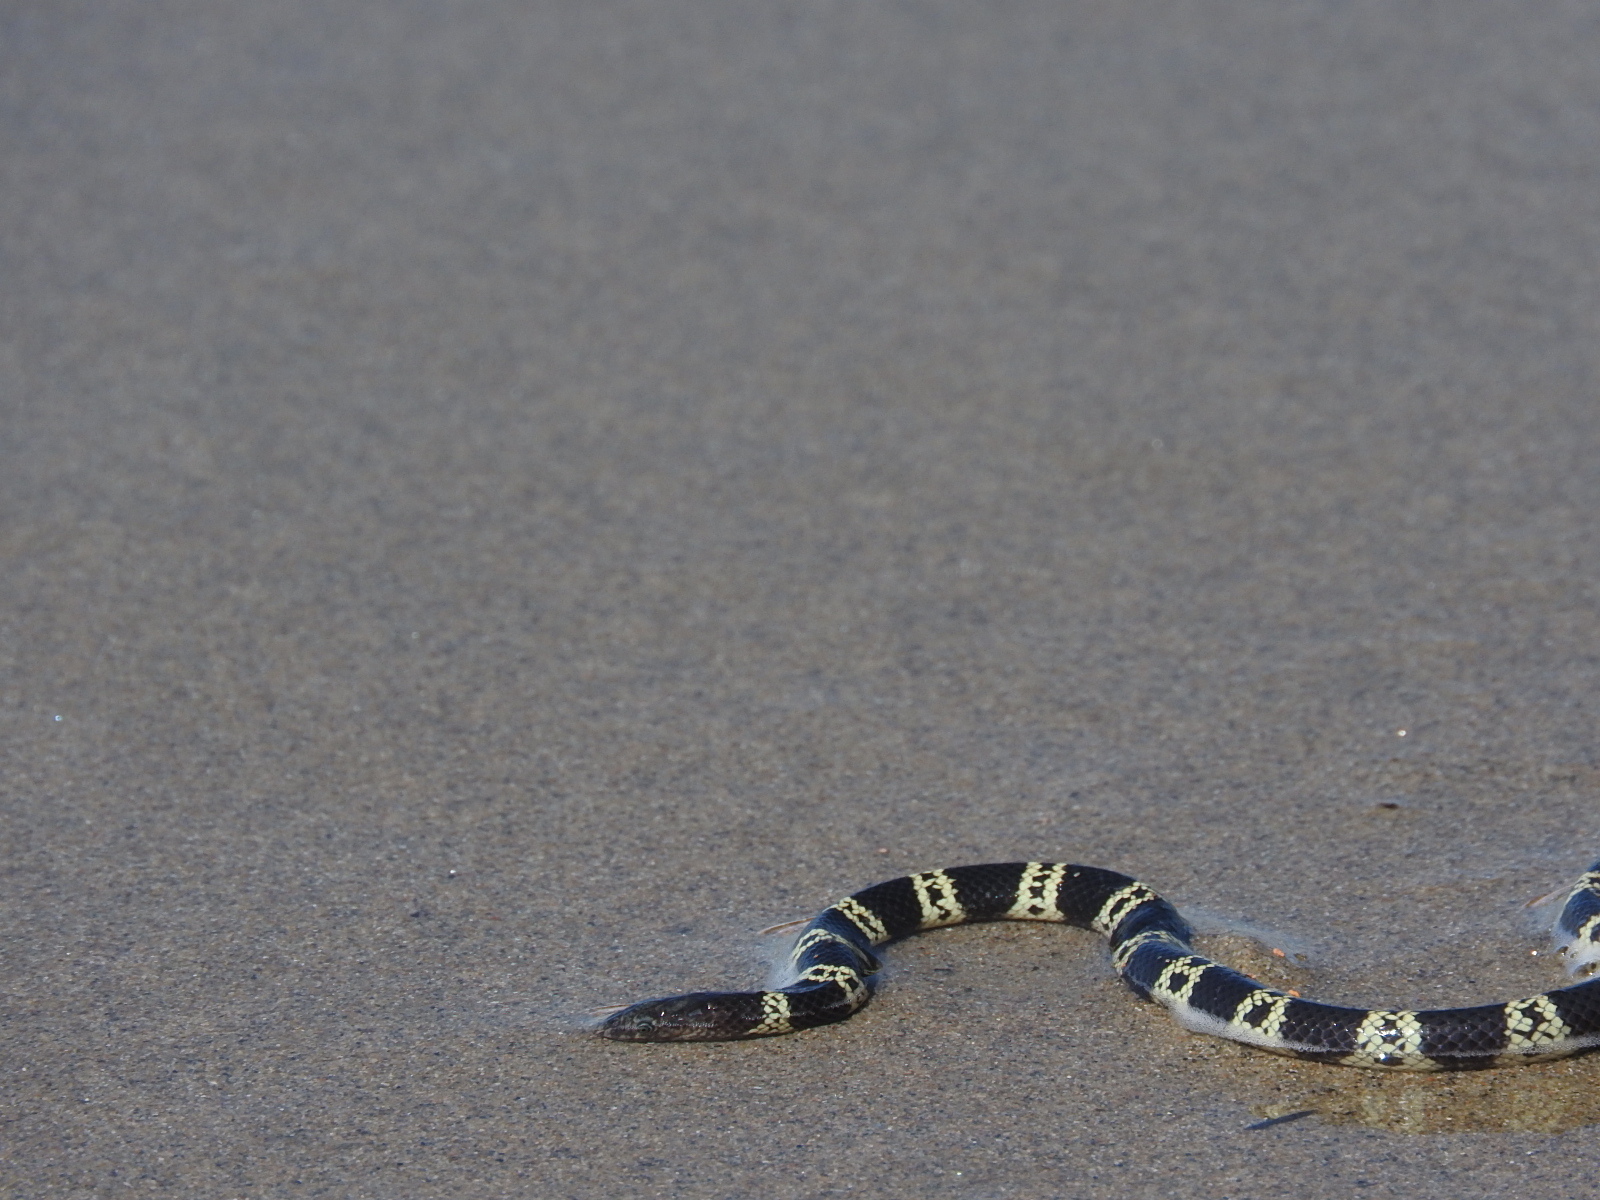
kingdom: Animalia
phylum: Chordata
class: Squamata
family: Elapidae
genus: Hydrophis
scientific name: Hydrophis elegans
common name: Bar-bellied sea snake
